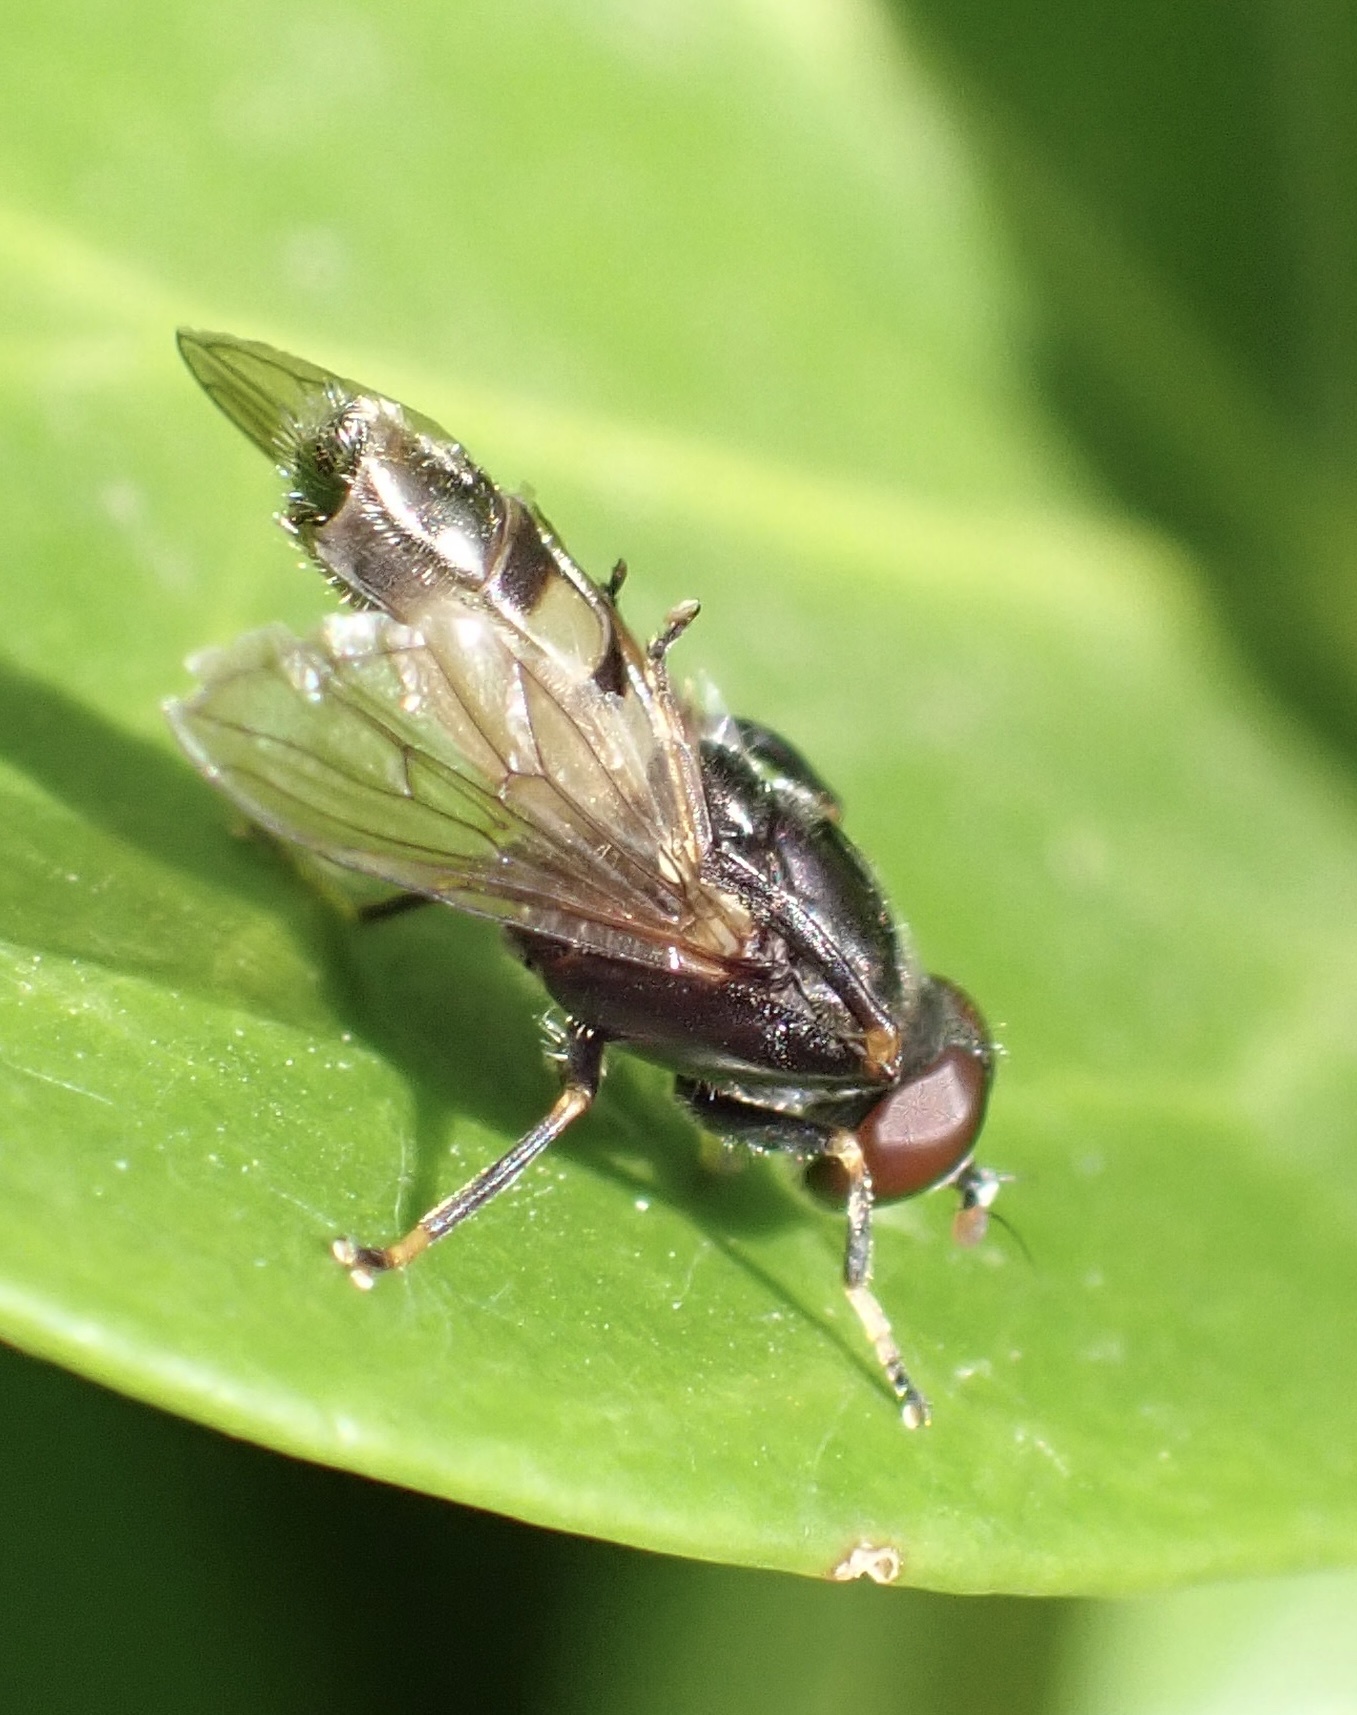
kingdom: Animalia
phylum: Arthropoda
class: Insecta
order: Diptera
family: Syrphidae
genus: Chalcosyrphus
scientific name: Chalcosyrphus nemorum
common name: Dusky-banded forest fly
